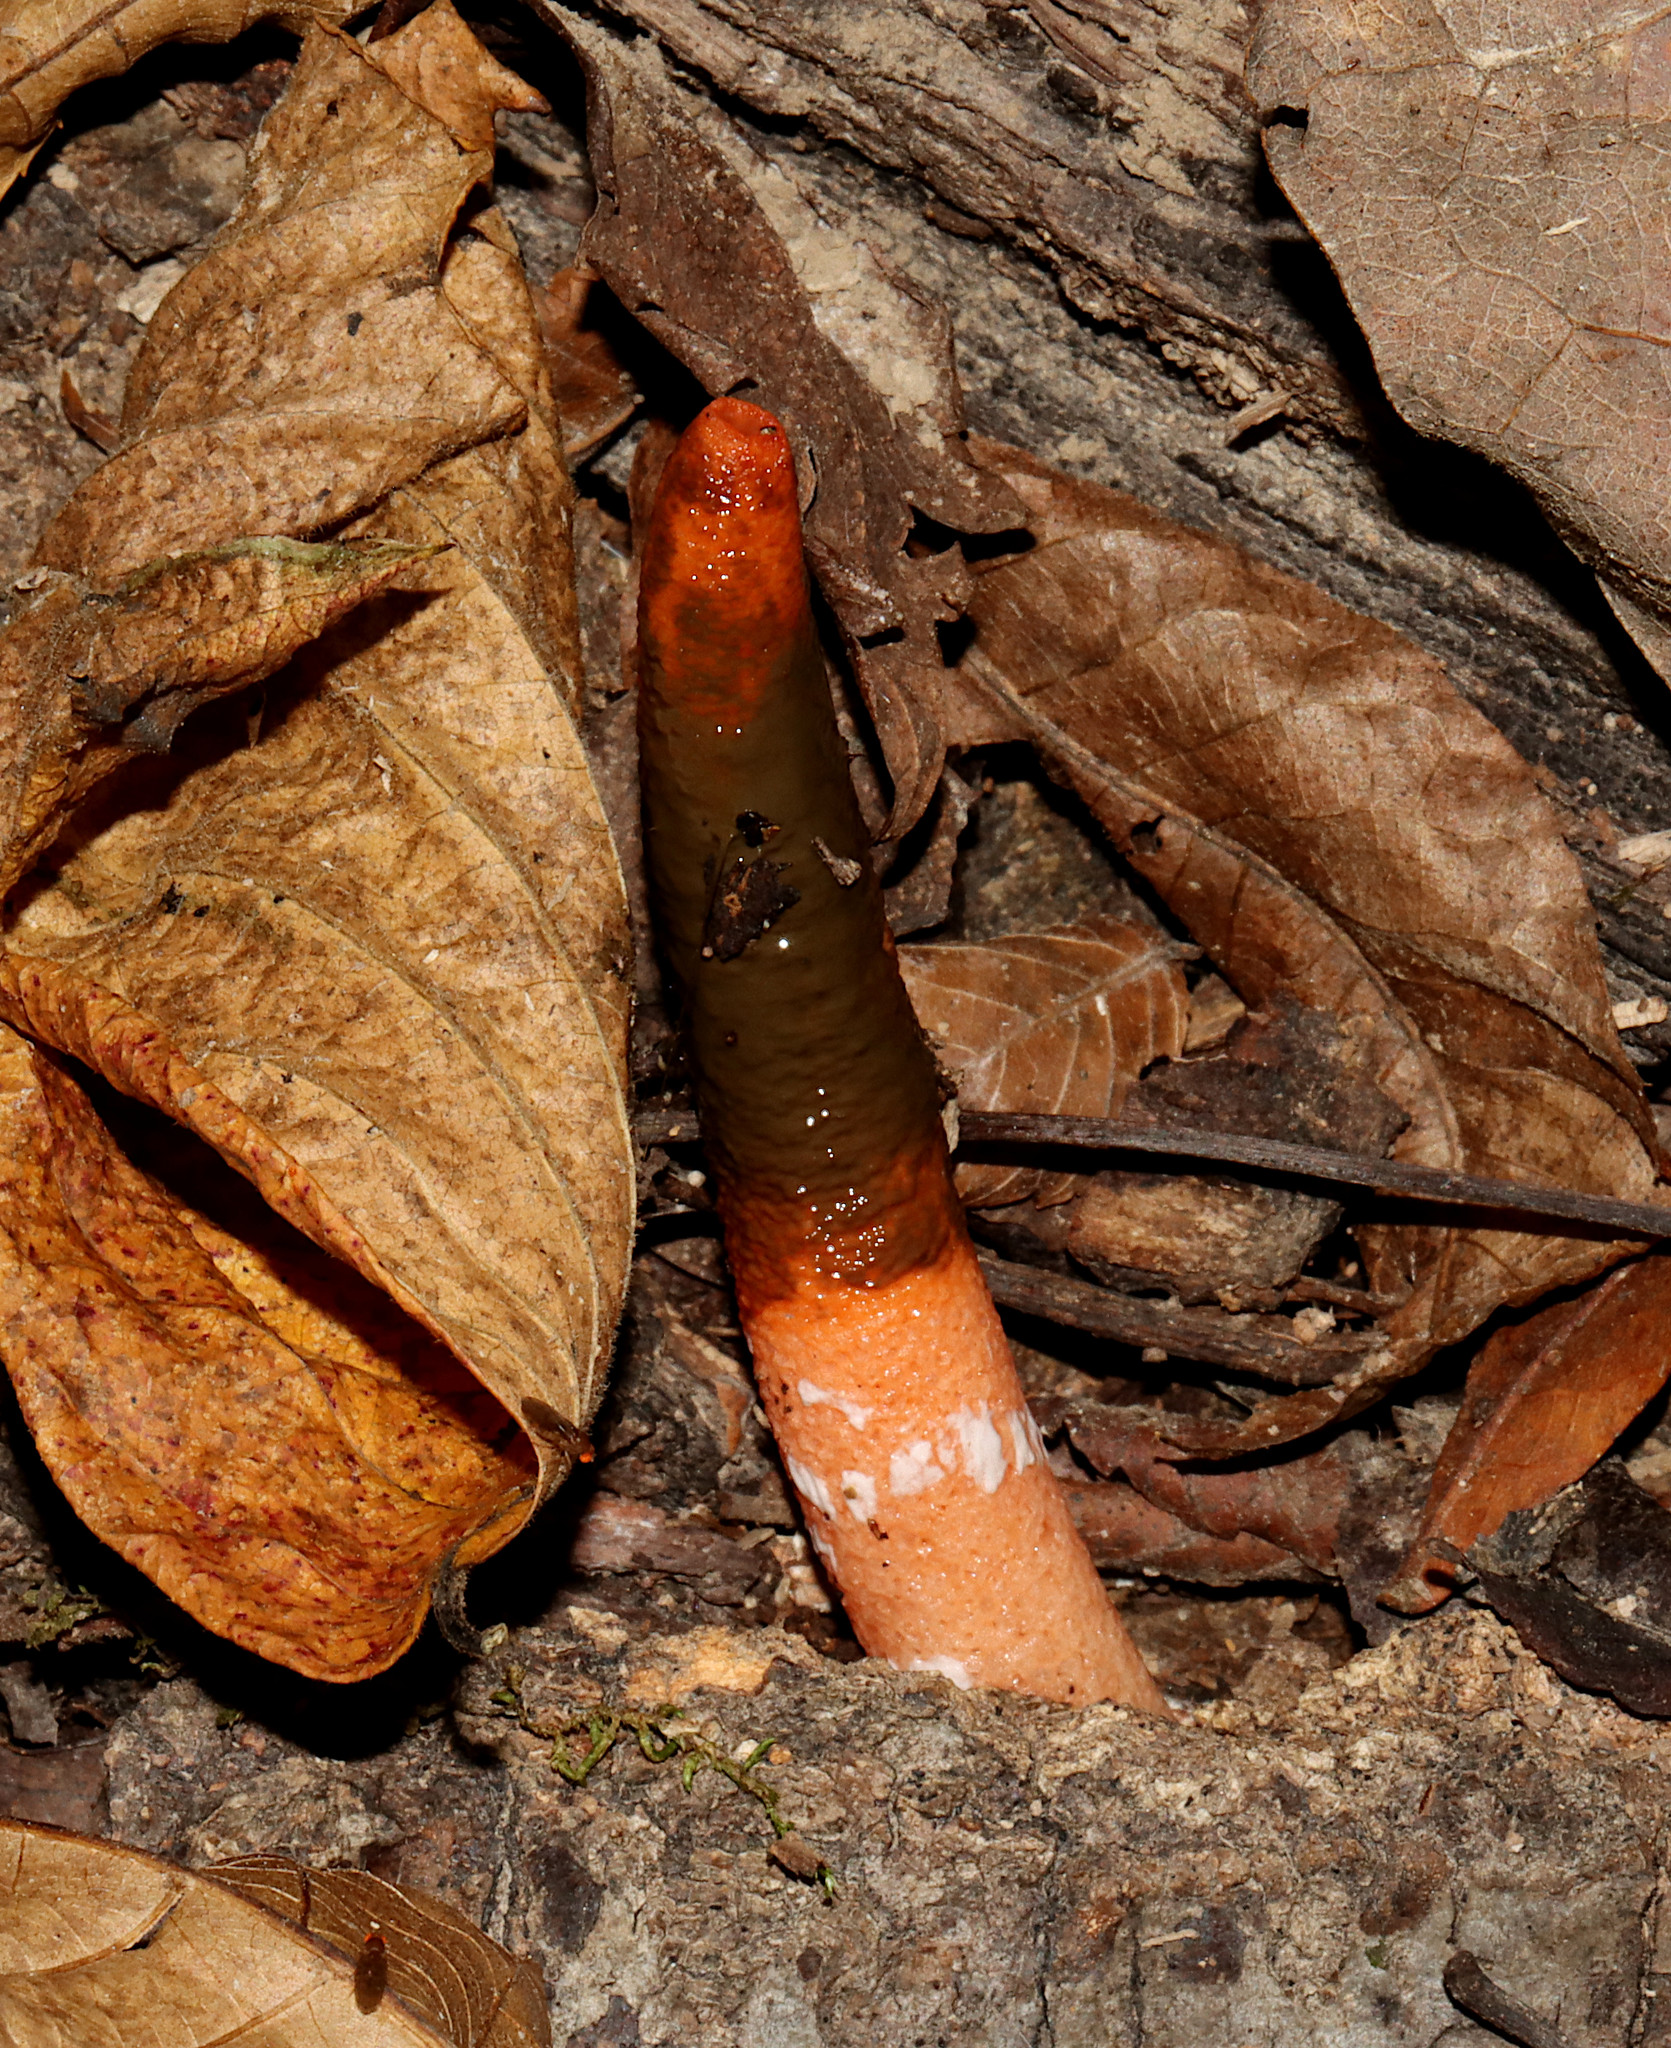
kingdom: Fungi
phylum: Basidiomycota
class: Agaricomycetes
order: Phallales
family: Phallaceae
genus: Mutinus
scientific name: Mutinus elegans
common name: Devil's dipstick
